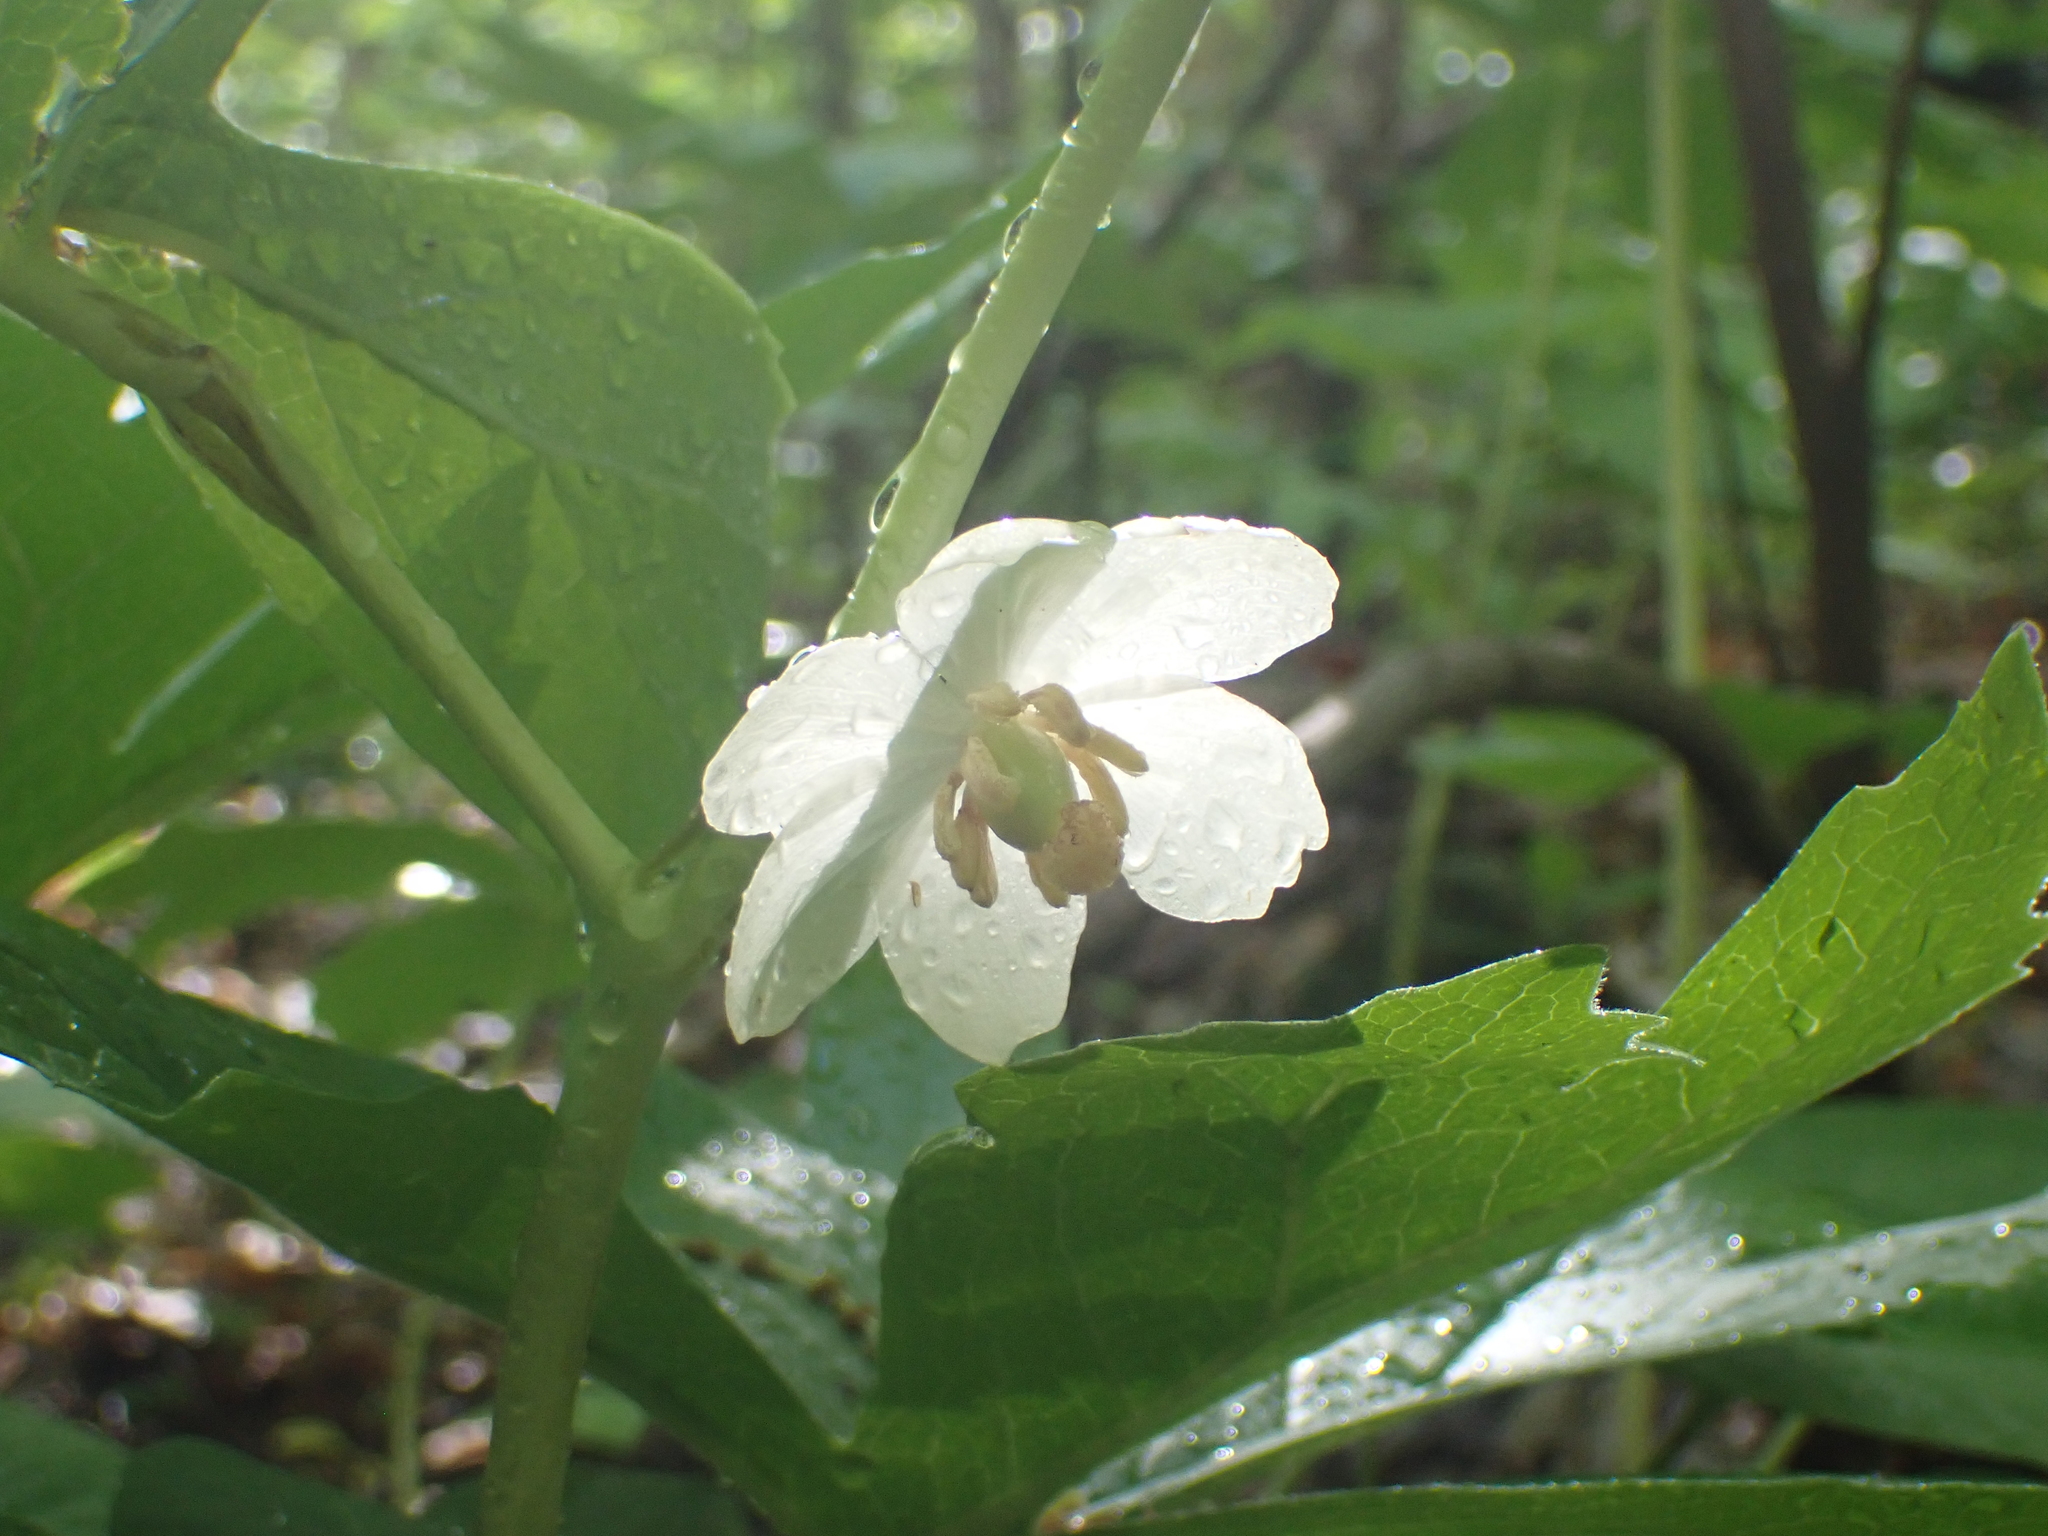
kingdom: Plantae
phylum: Tracheophyta
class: Magnoliopsida
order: Ranunculales
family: Berberidaceae
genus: Podophyllum
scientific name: Podophyllum peltatum
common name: Wild mandrake
